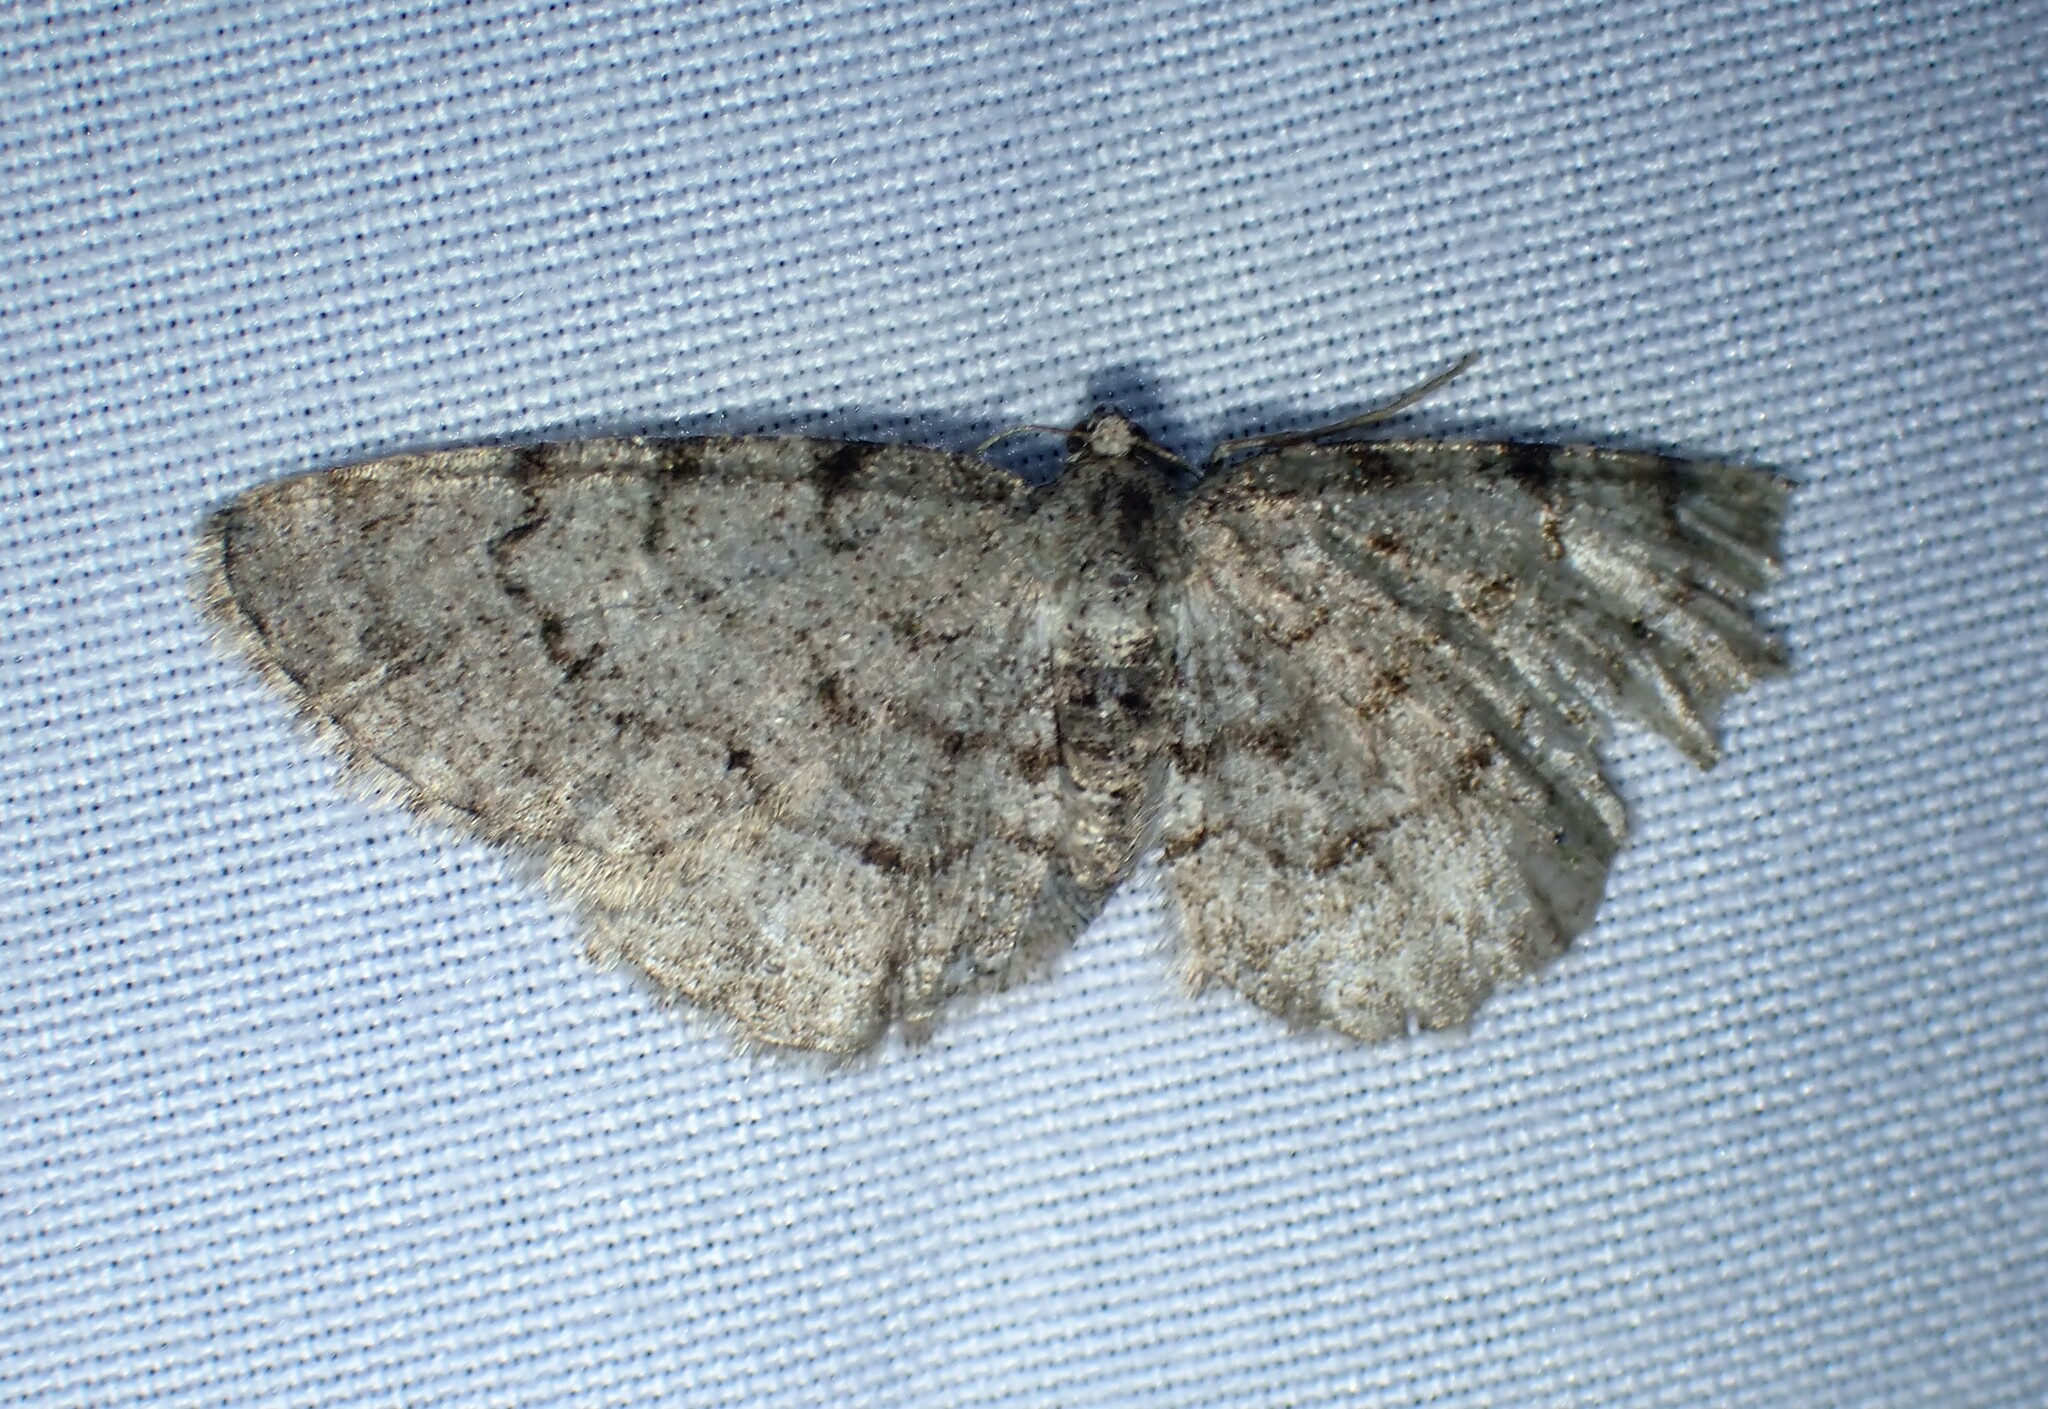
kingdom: Animalia
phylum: Arthropoda
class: Insecta
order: Lepidoptera
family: Geometridae
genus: Aethalura
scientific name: Aethalura intertexta
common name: Four-barred gray
